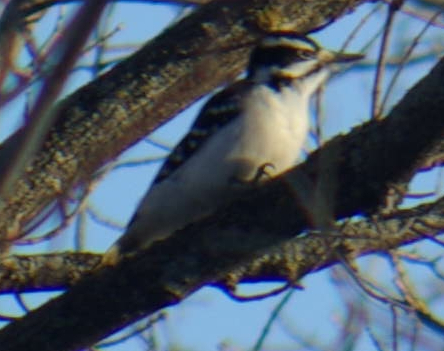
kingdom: Animalia
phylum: Chordata
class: Aves
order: Piciformes
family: Picidae
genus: Leuconotopicus
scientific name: Leuconotopicus villosus
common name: Hairy woodpecker
